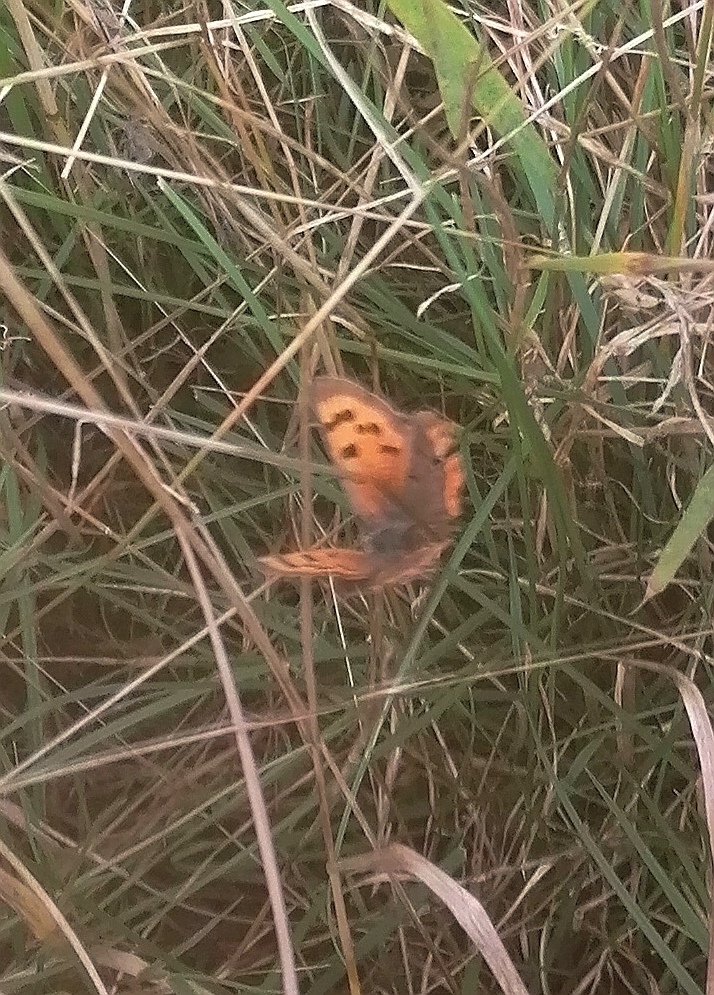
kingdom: Animalia
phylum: Arthropoda
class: Insecta
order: Lepidoptera
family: Lycaenidae
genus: Lycaena
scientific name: Lycaena phlaeas
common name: Small copper
